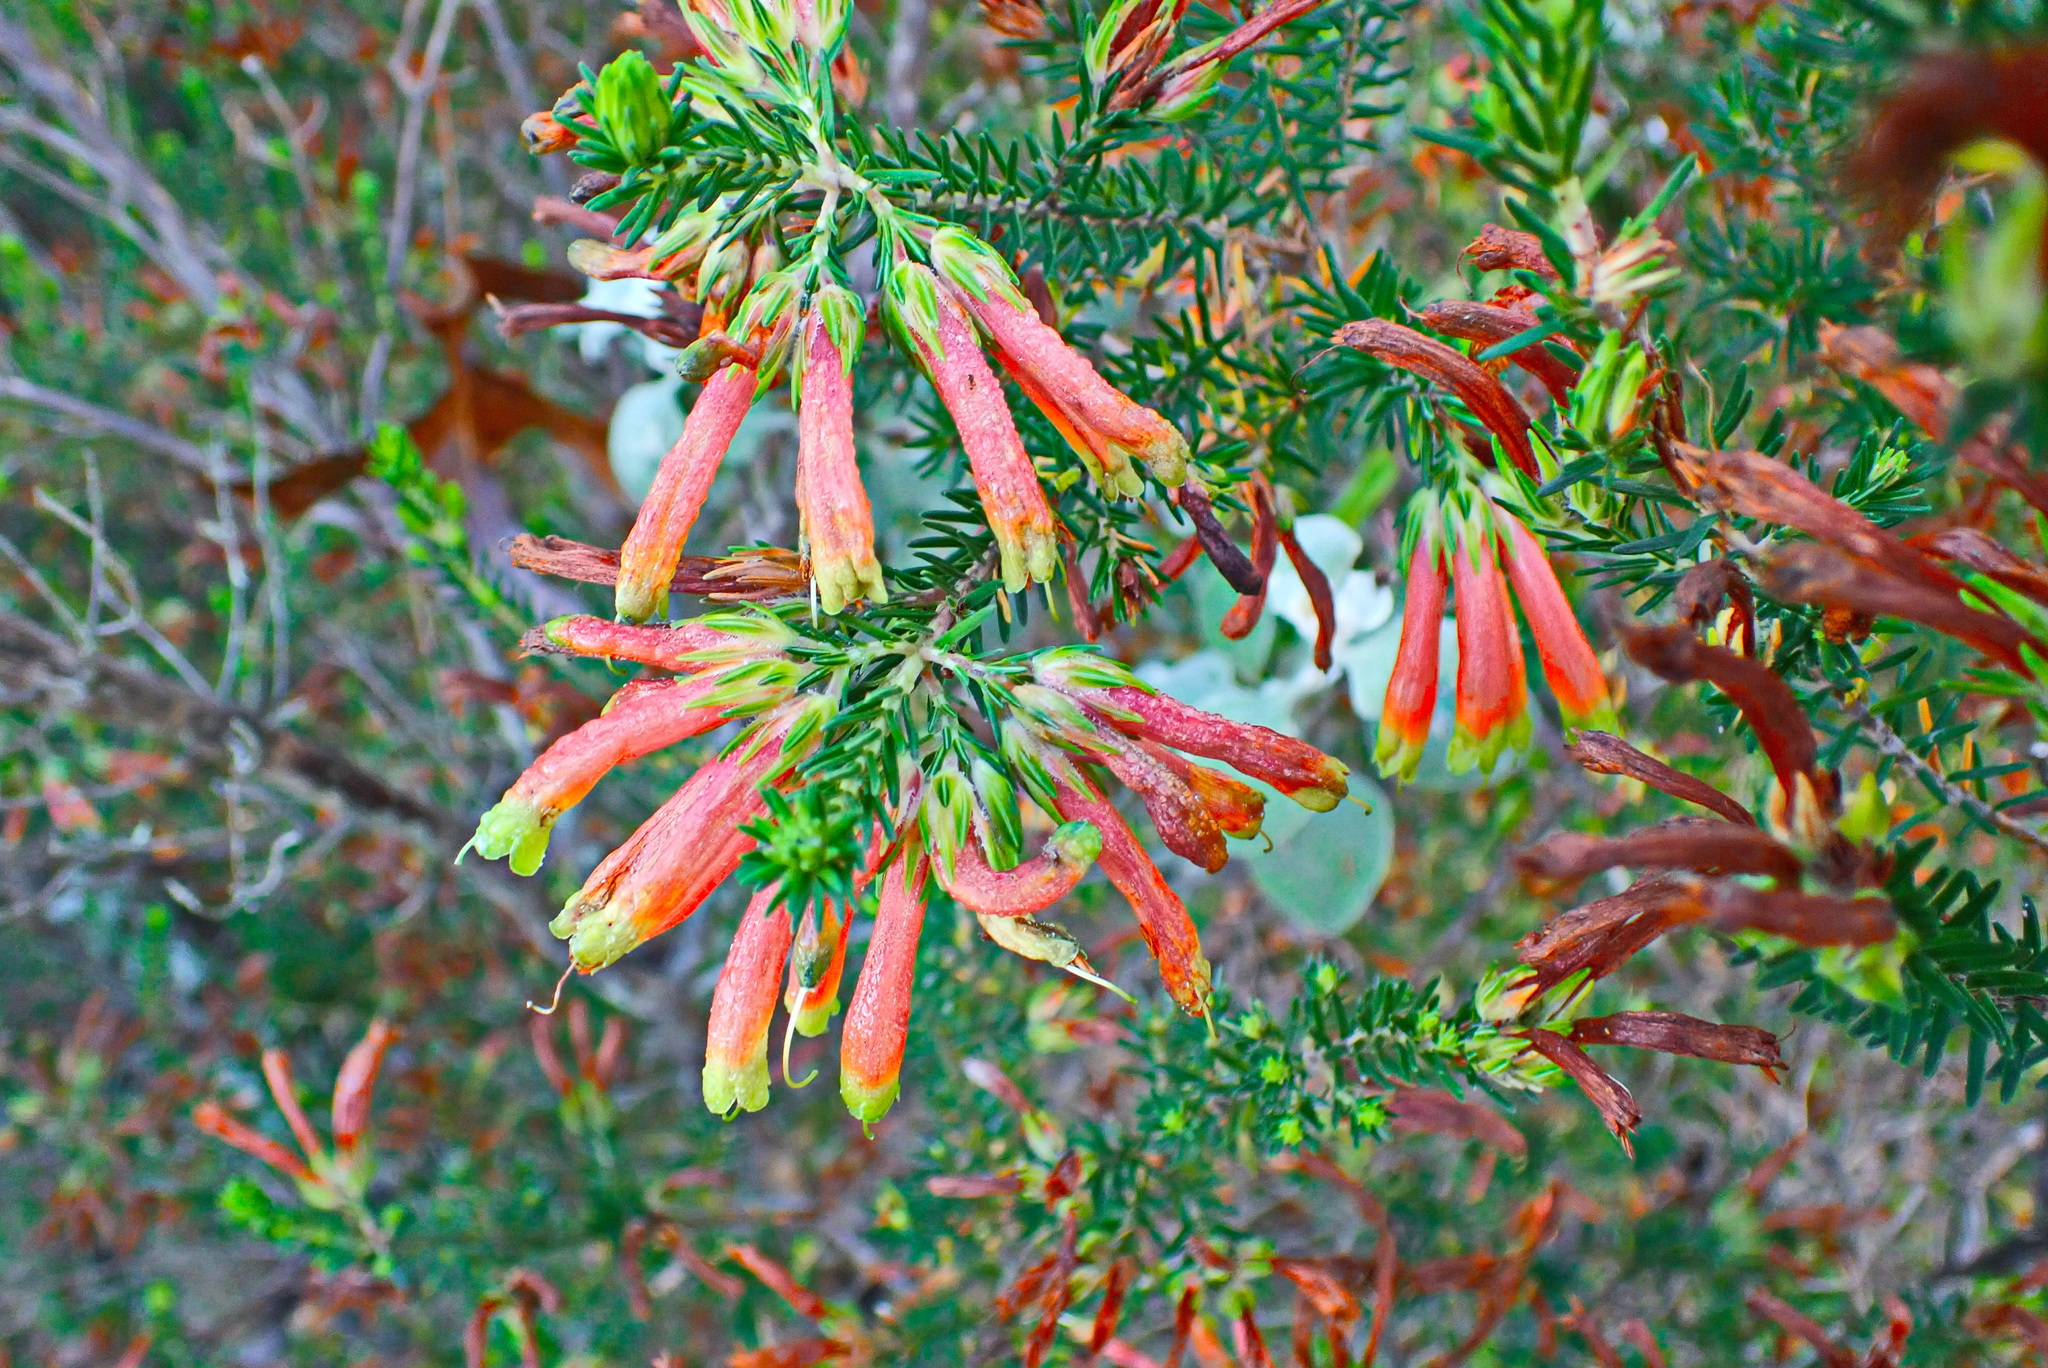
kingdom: Plantae
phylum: Tracheophyta
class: Magnoliopsida
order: Ericales
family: Ericaceae
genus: Erica
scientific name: Erica unicolor
